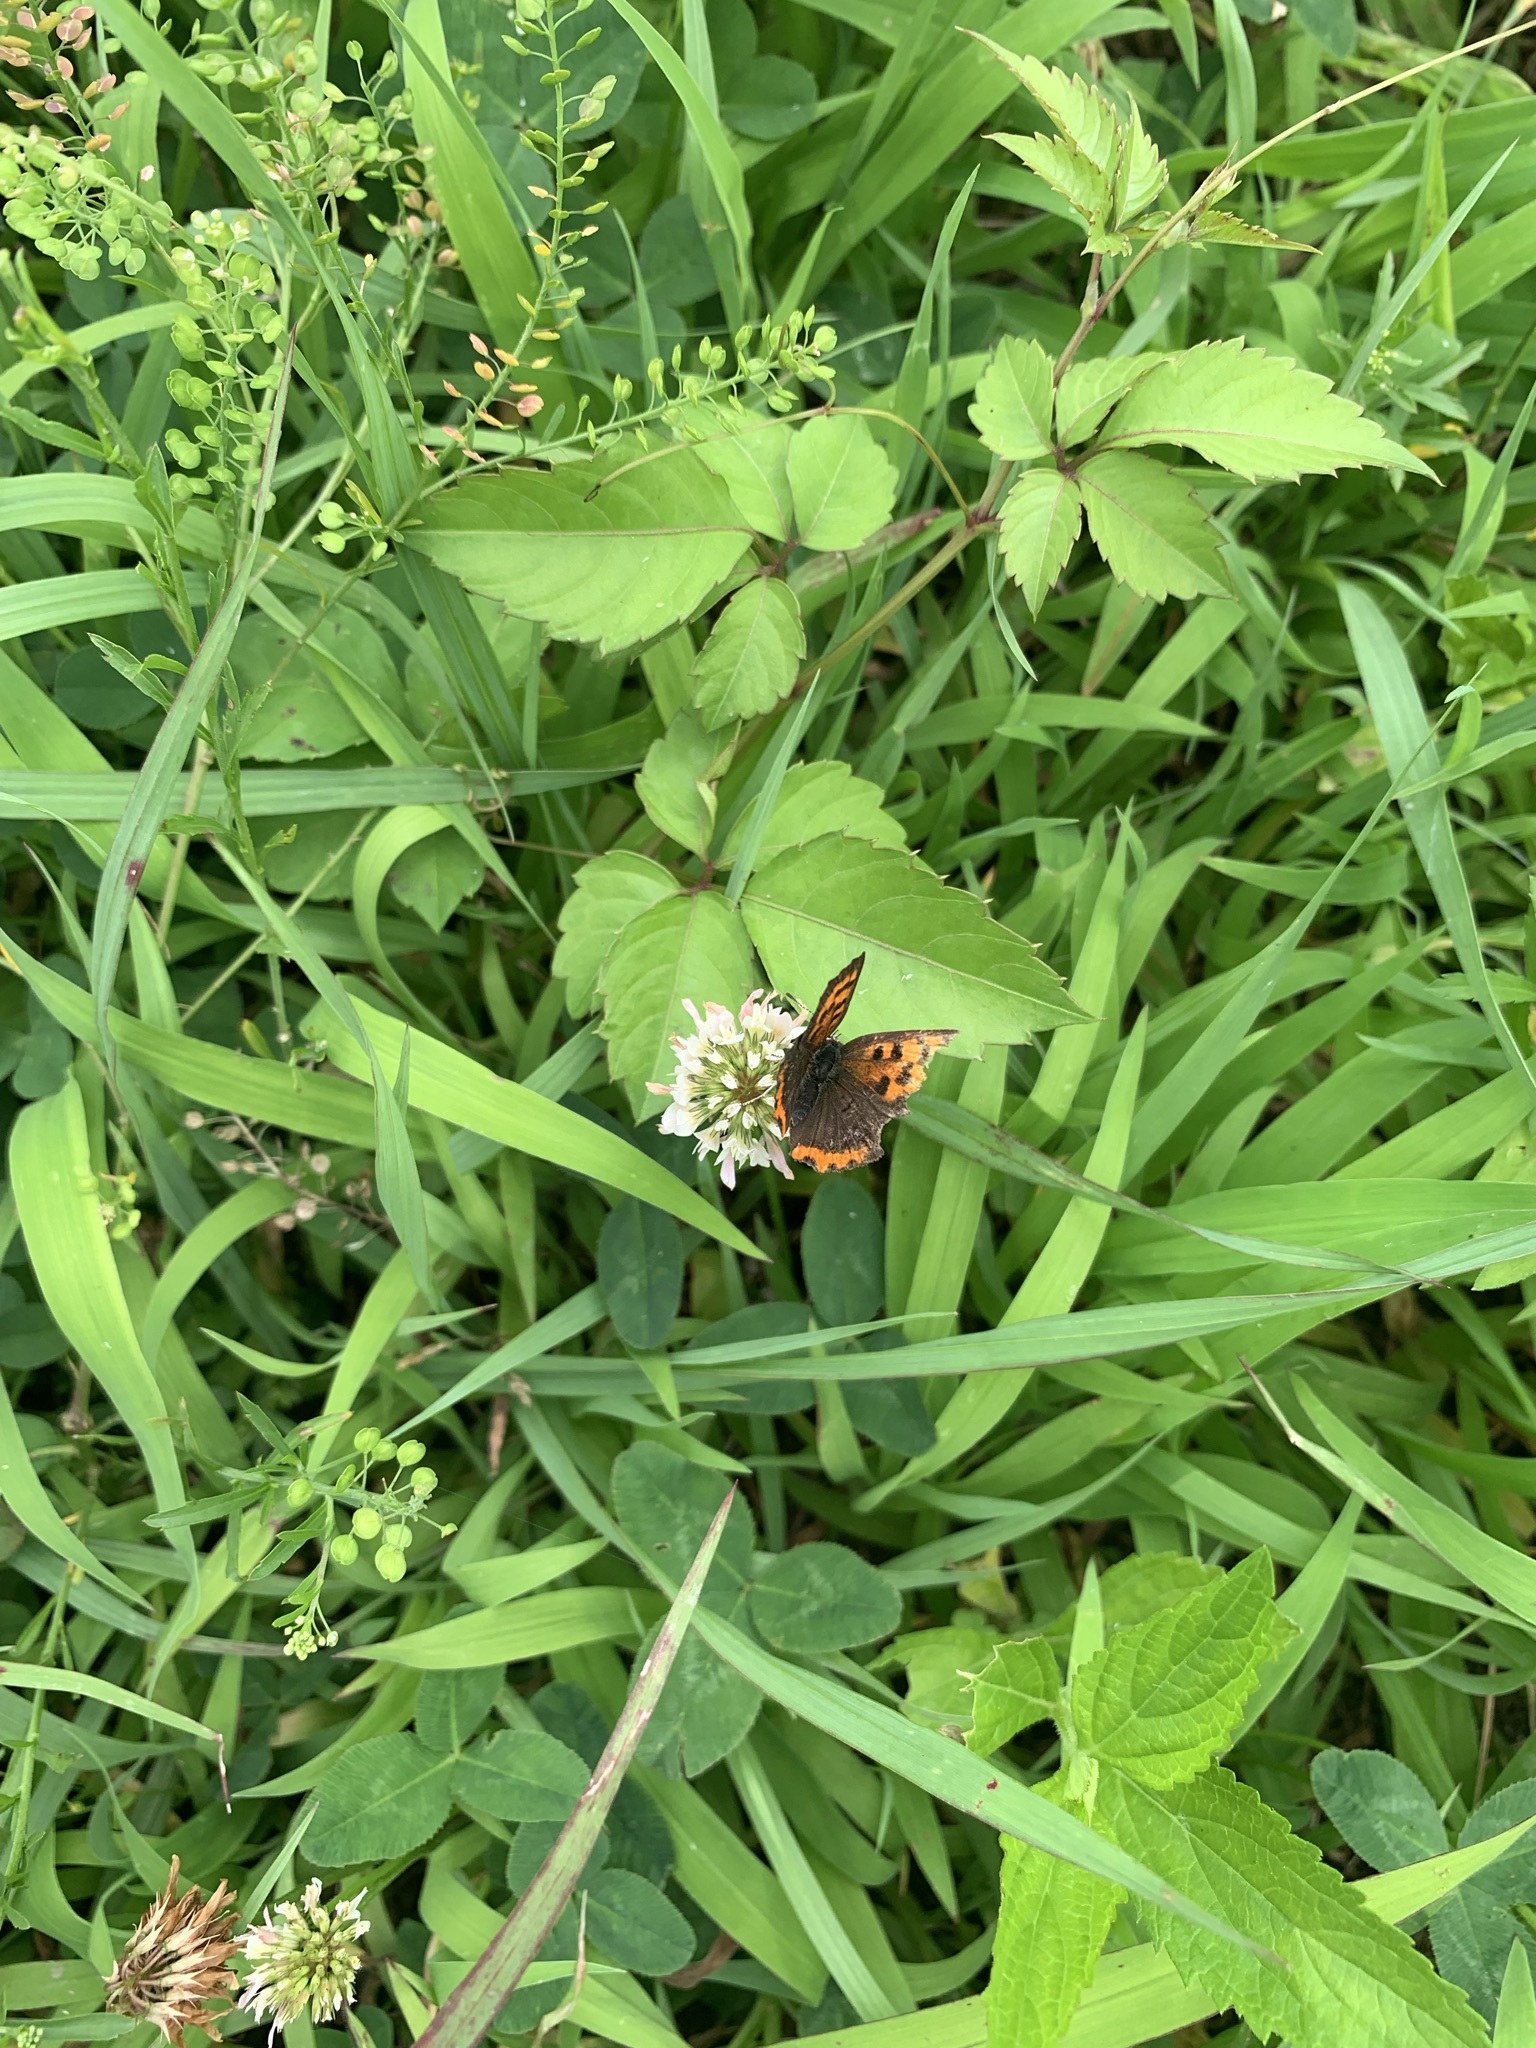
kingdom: Animalia
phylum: Arthropoda
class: Insecta
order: Lepidoptera
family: Lycaenidae
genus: Lycaena
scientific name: Lycaena phlaeas
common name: Small copper
